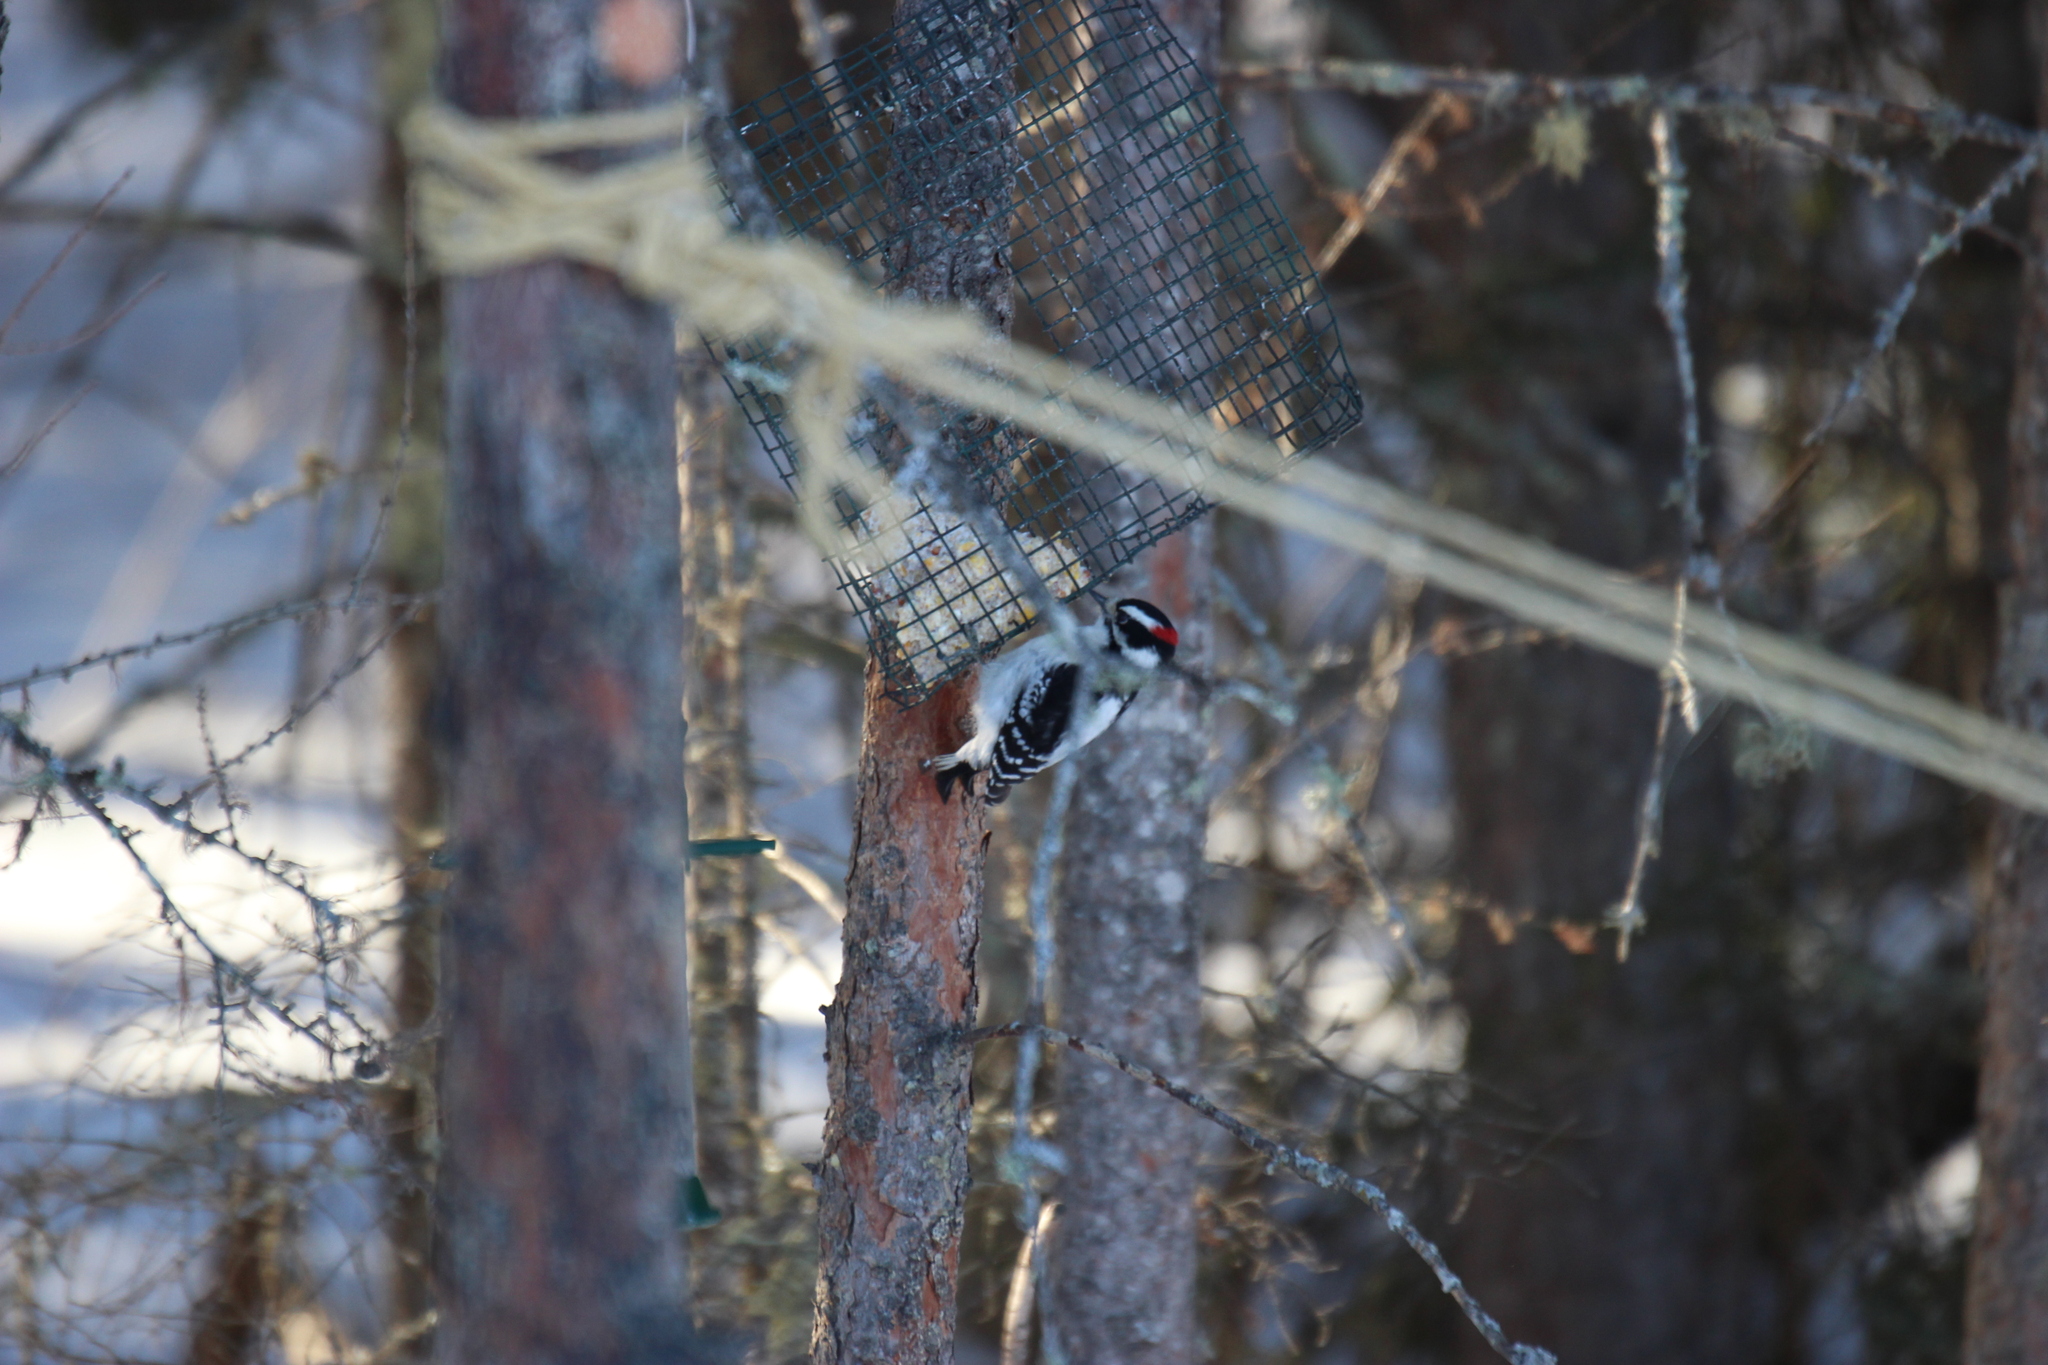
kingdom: Animalia
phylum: Chordata
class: Aves
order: Piciformes
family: Picidae
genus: Dryobates
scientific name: Dryobates pubescens
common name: Downy woodpecker
